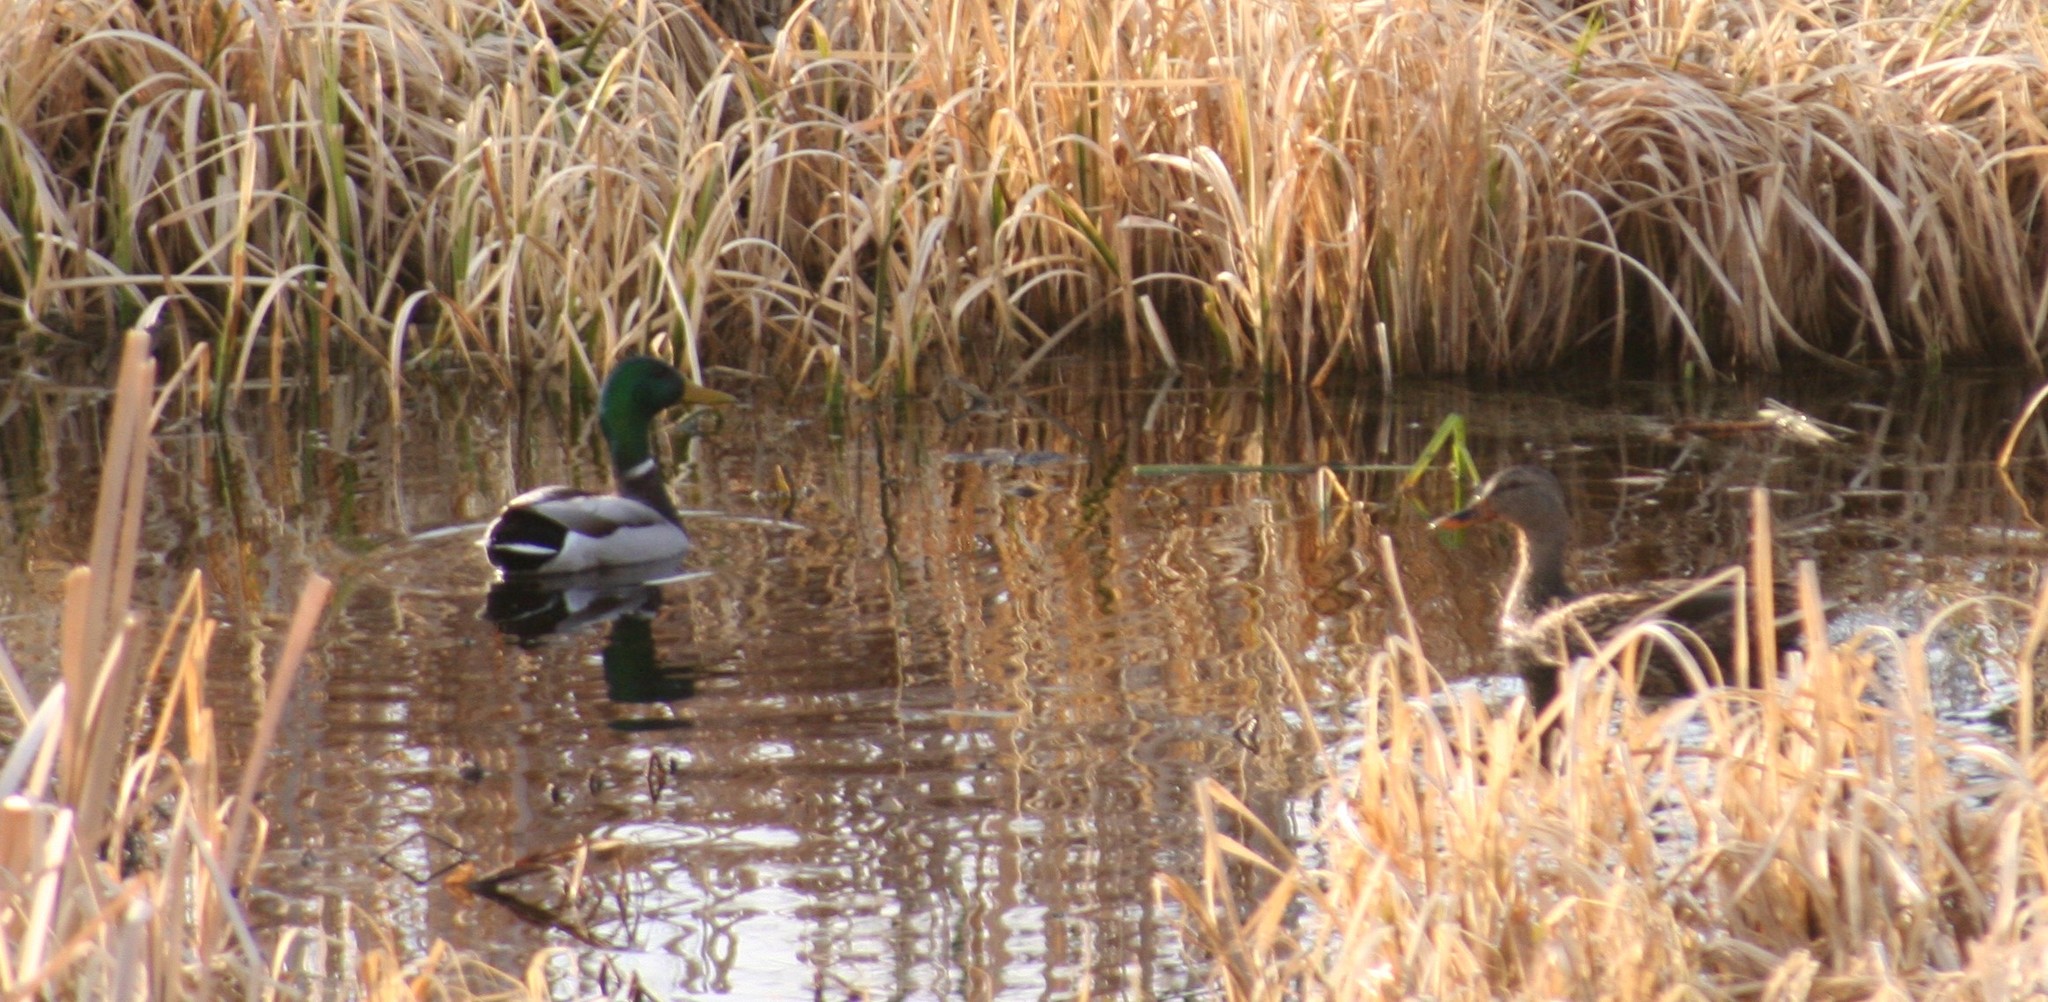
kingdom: Animalia
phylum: Chordata
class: Aves
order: Anseriformes
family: Anatidae
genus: Anas
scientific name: Anas platyrhynchos
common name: Mallard
